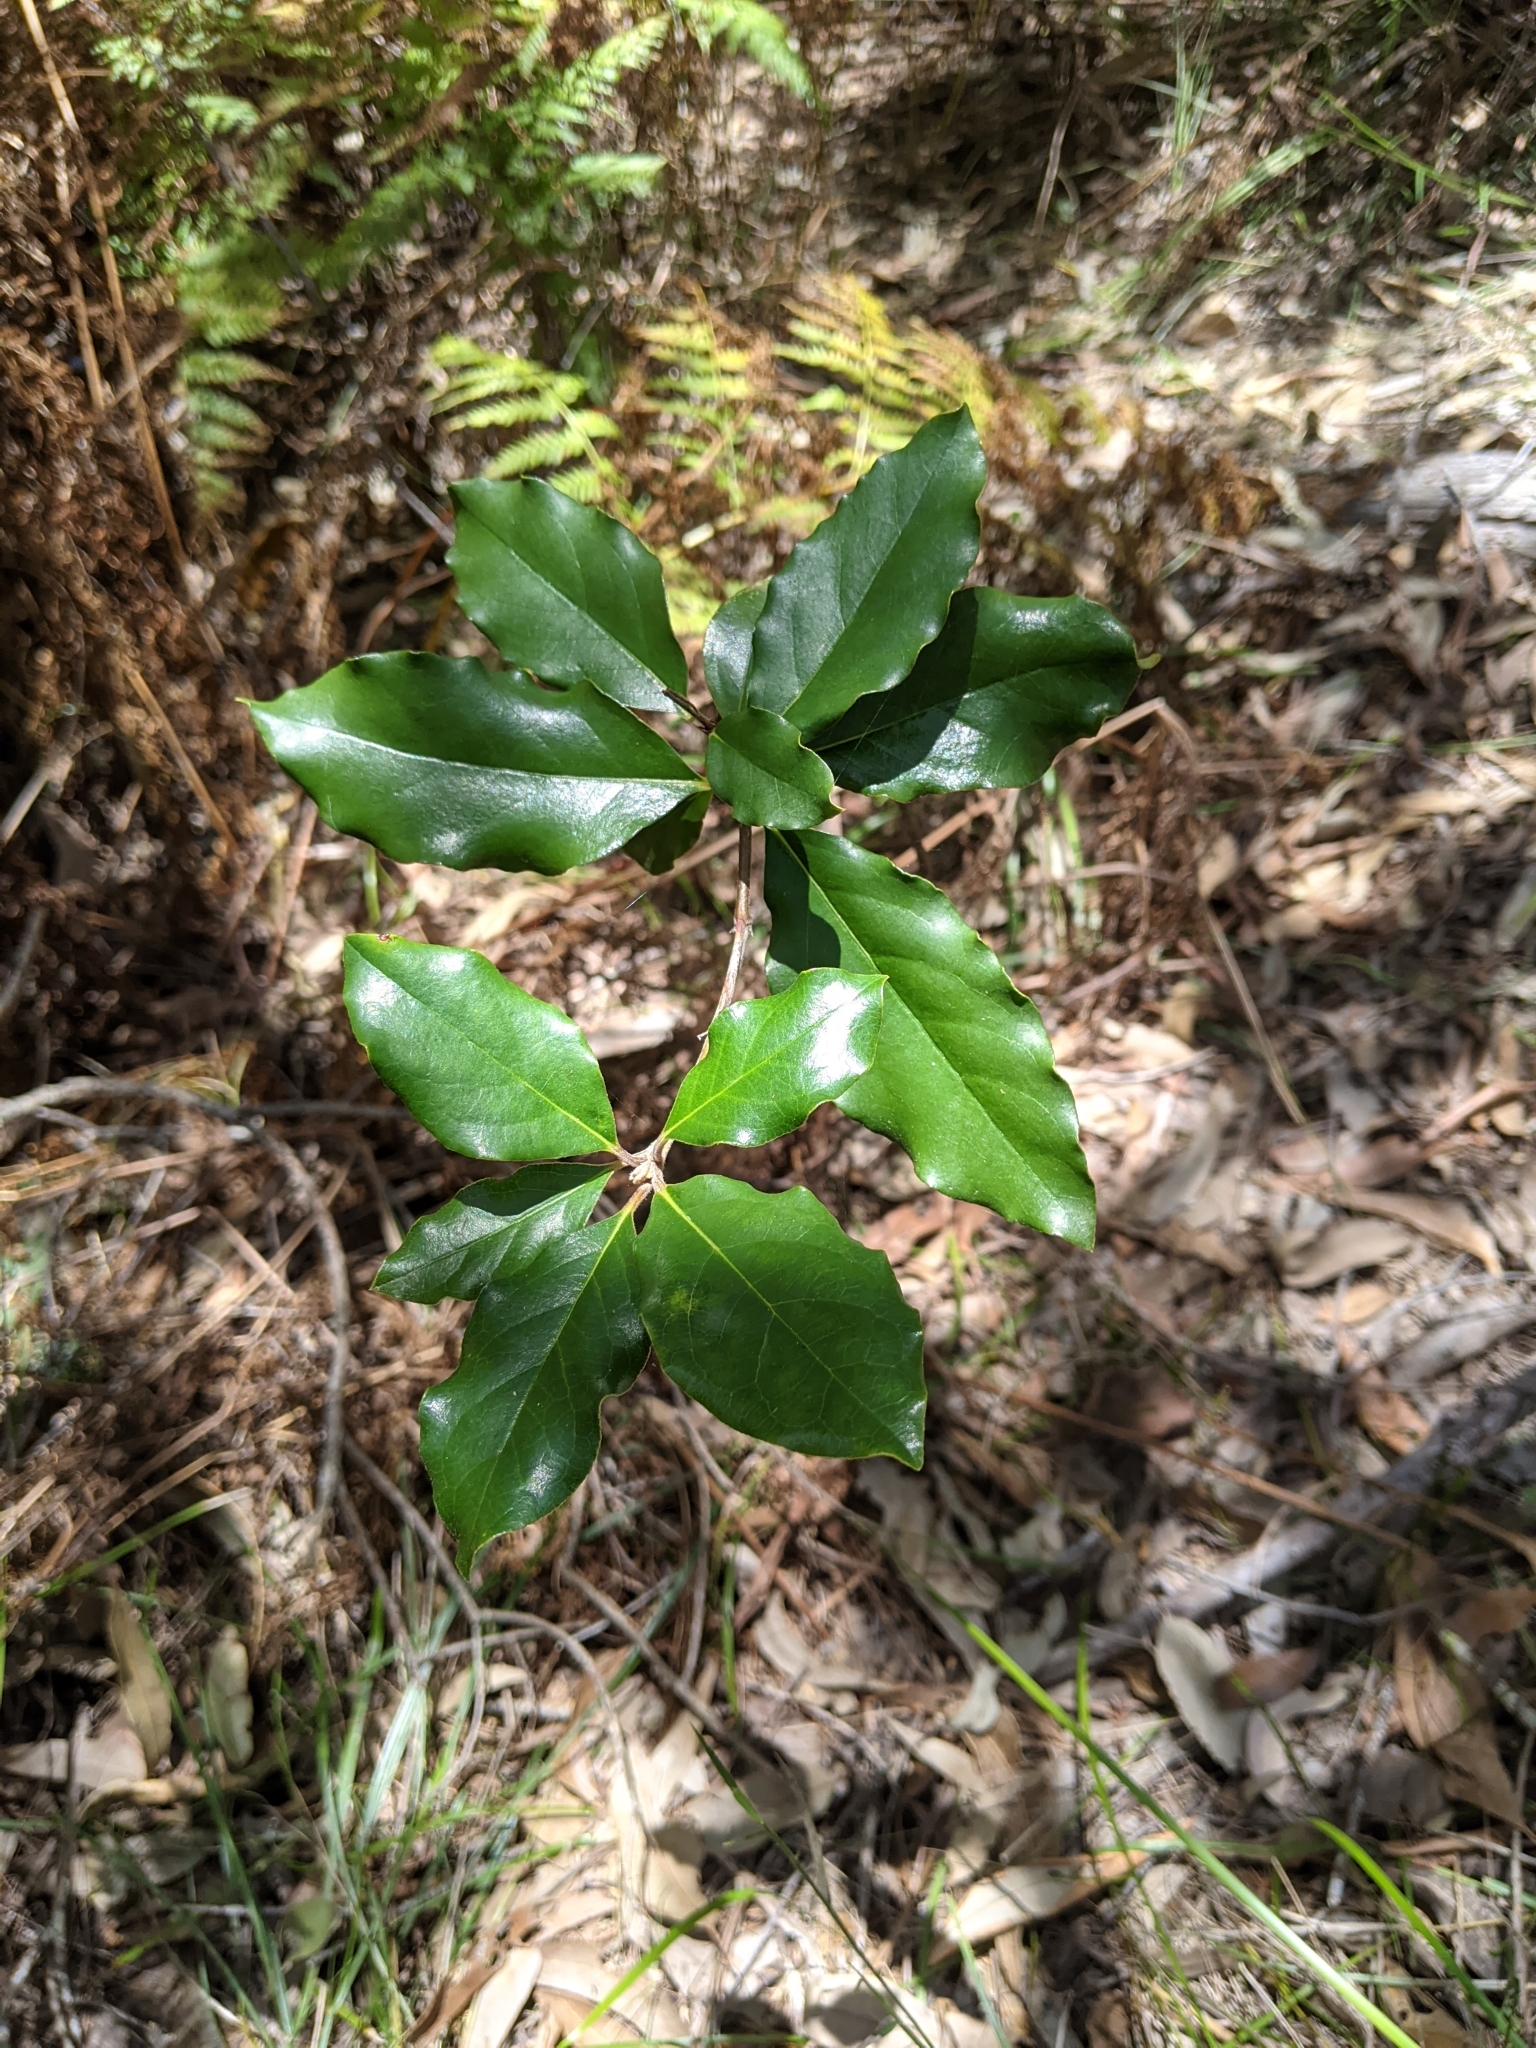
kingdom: Plantae
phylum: Tracheophyta
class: Magnoliopsida
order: Apiales
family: Pittosporaceae
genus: Pittosporum
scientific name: Pittosporum revolutum
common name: Brisbane-laurel
